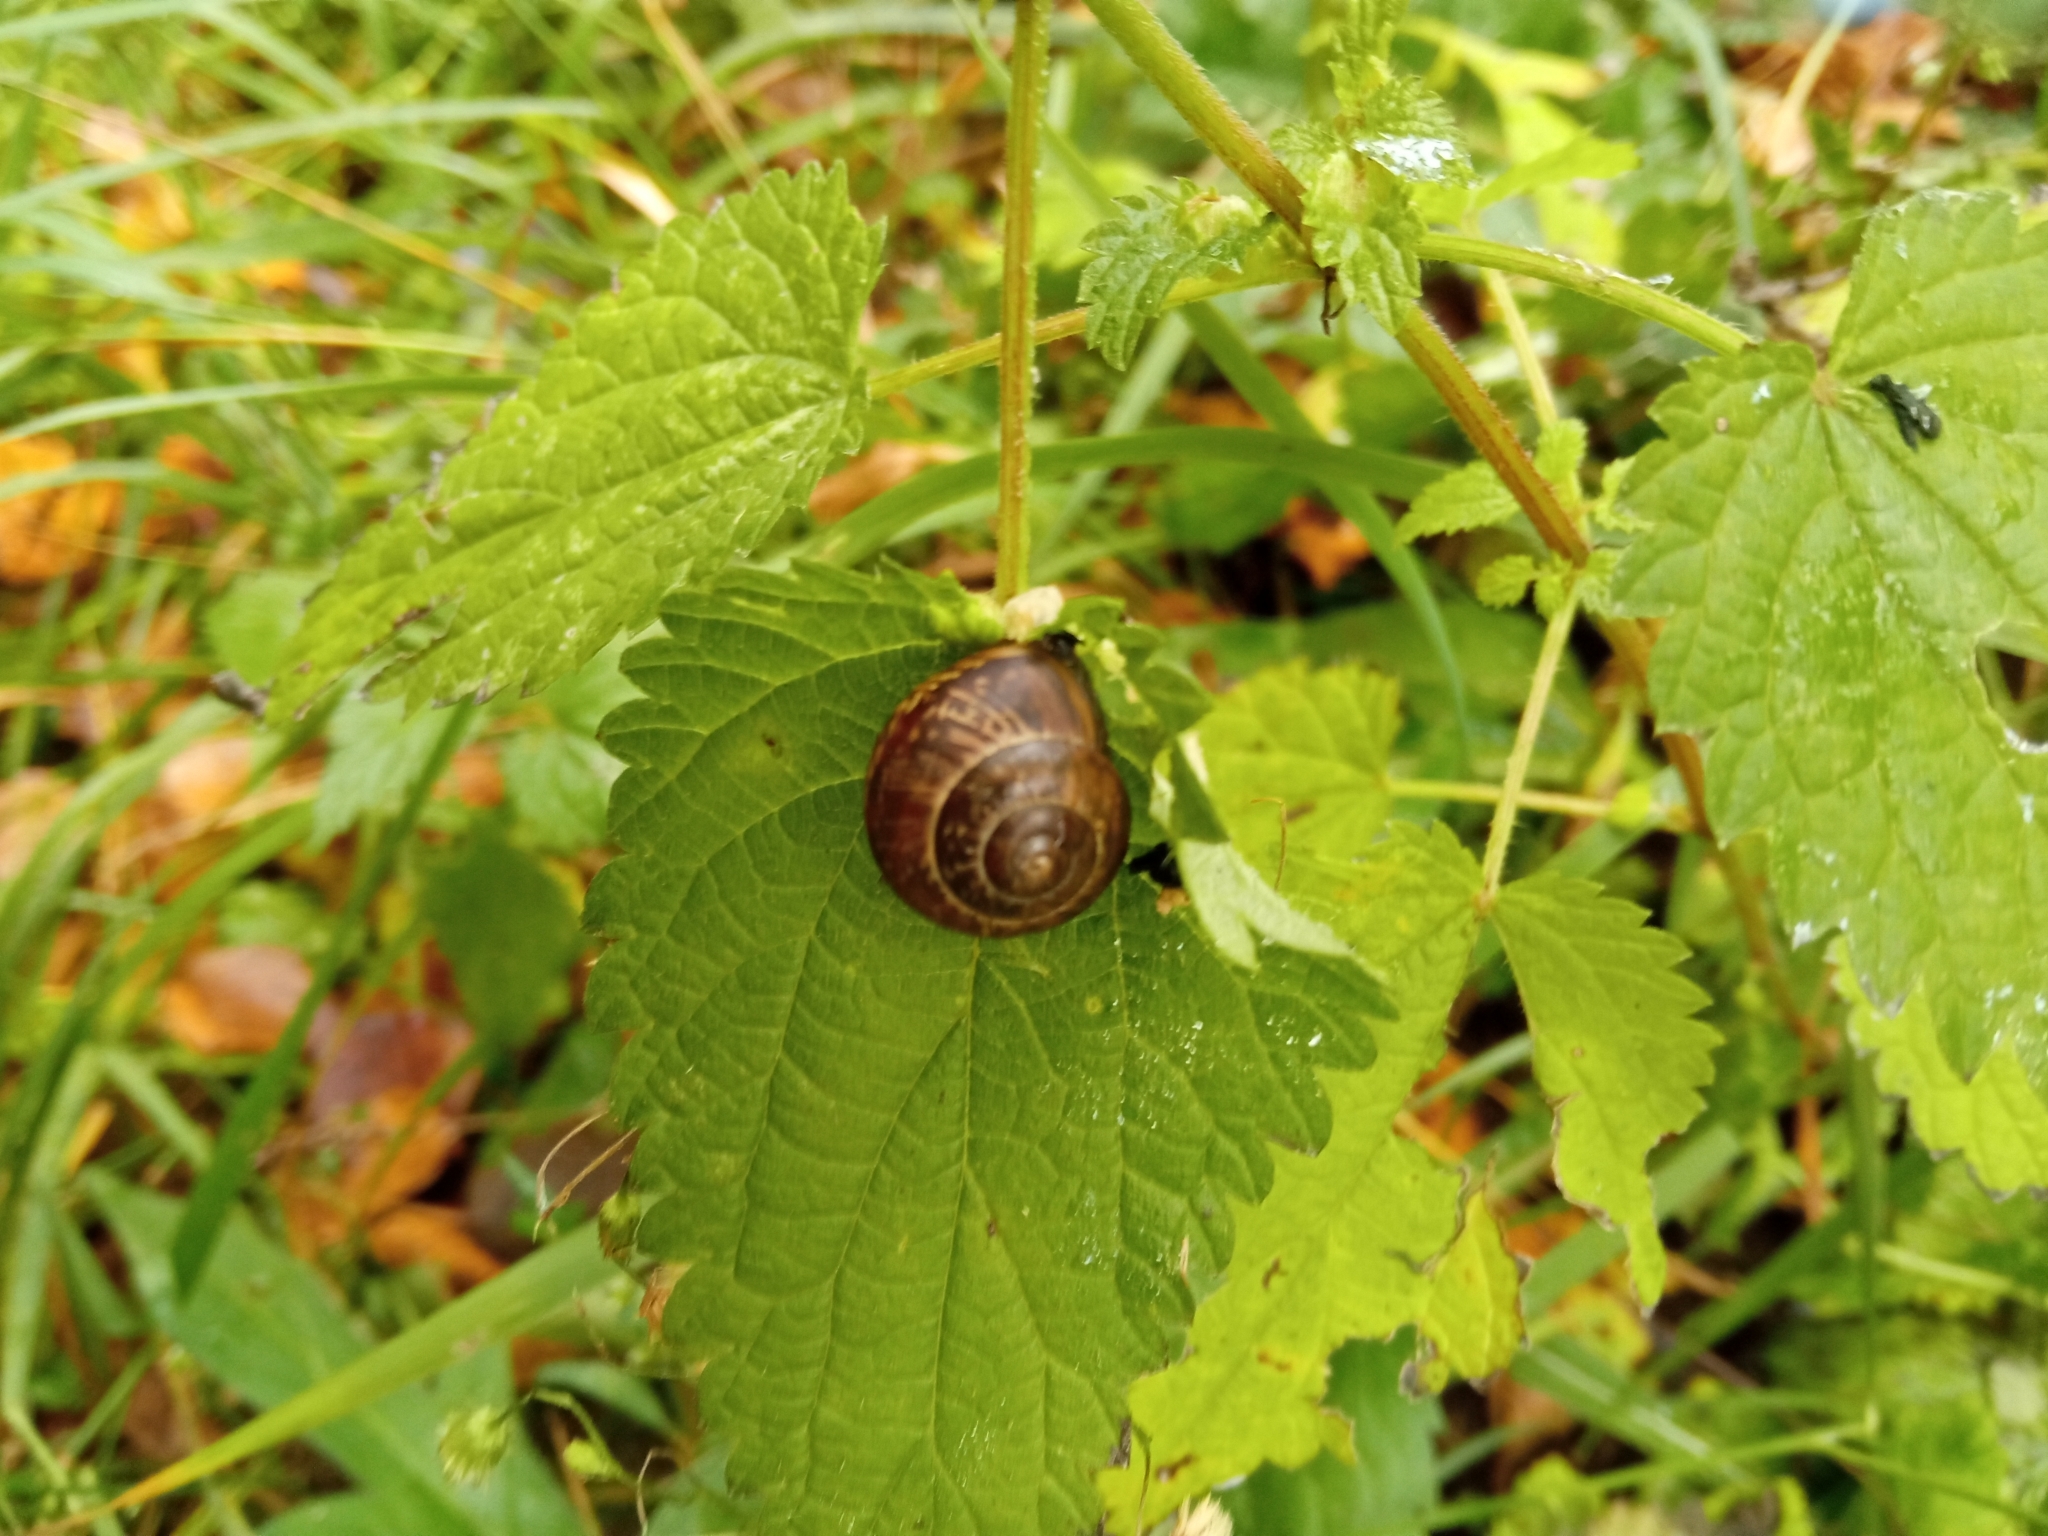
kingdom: Animalia
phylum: Mollusca
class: Gastropoda
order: Stylommatophora
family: Helicidae
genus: Arianta
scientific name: Arianta arbustorum
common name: Copse snail
